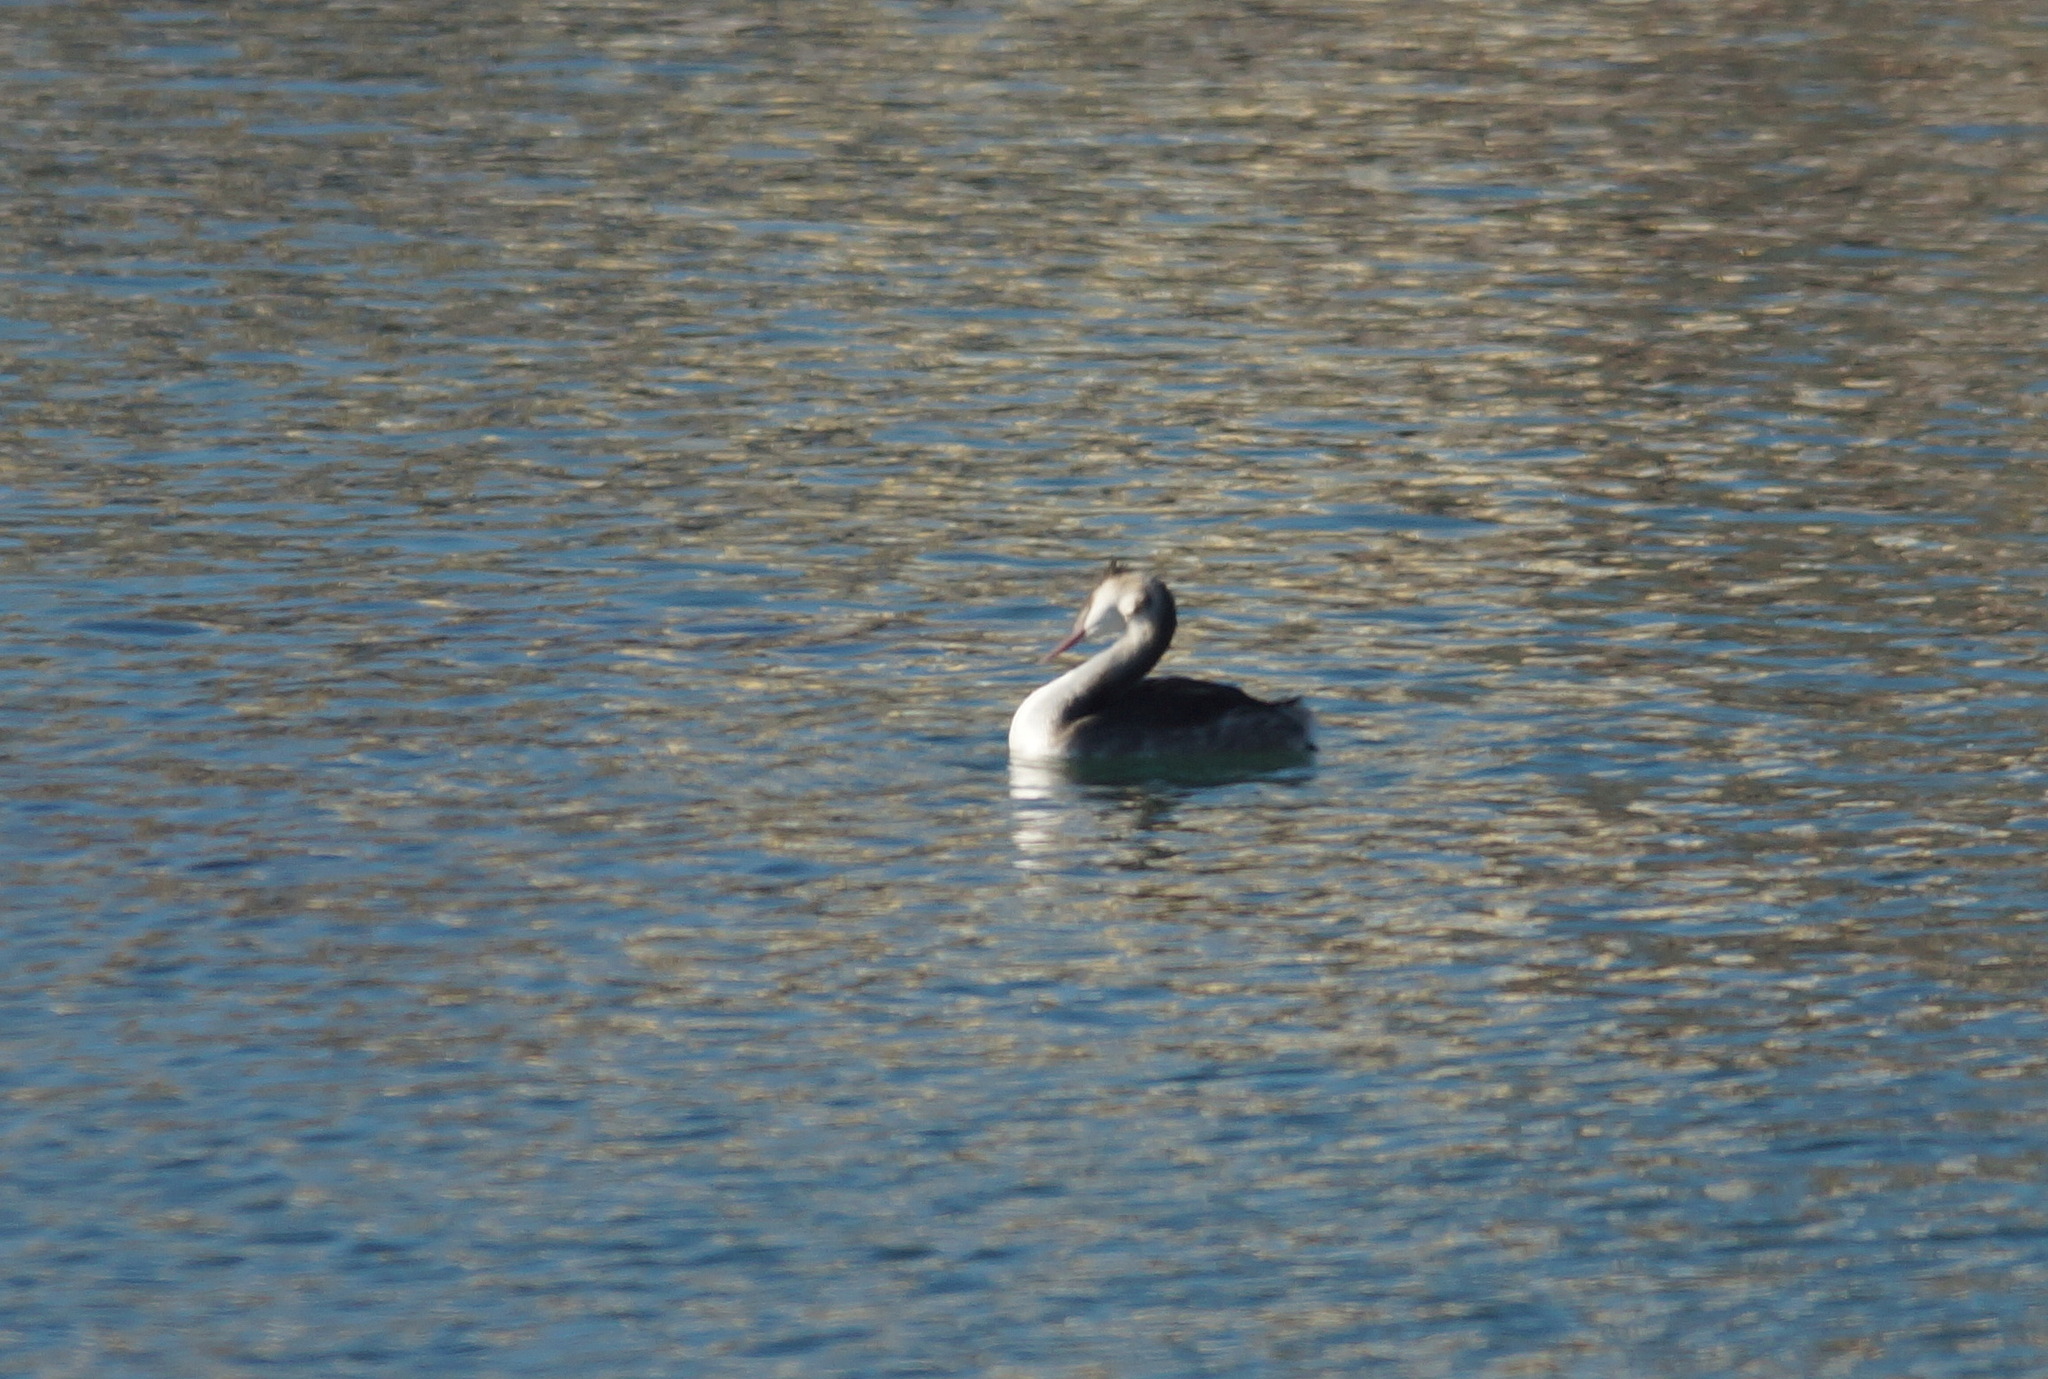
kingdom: Animalia
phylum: Chordata
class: Aves
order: Podicipediformes
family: Podicipedidae
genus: Podiceps
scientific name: Podiceps cristatus
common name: Great crested grebe
